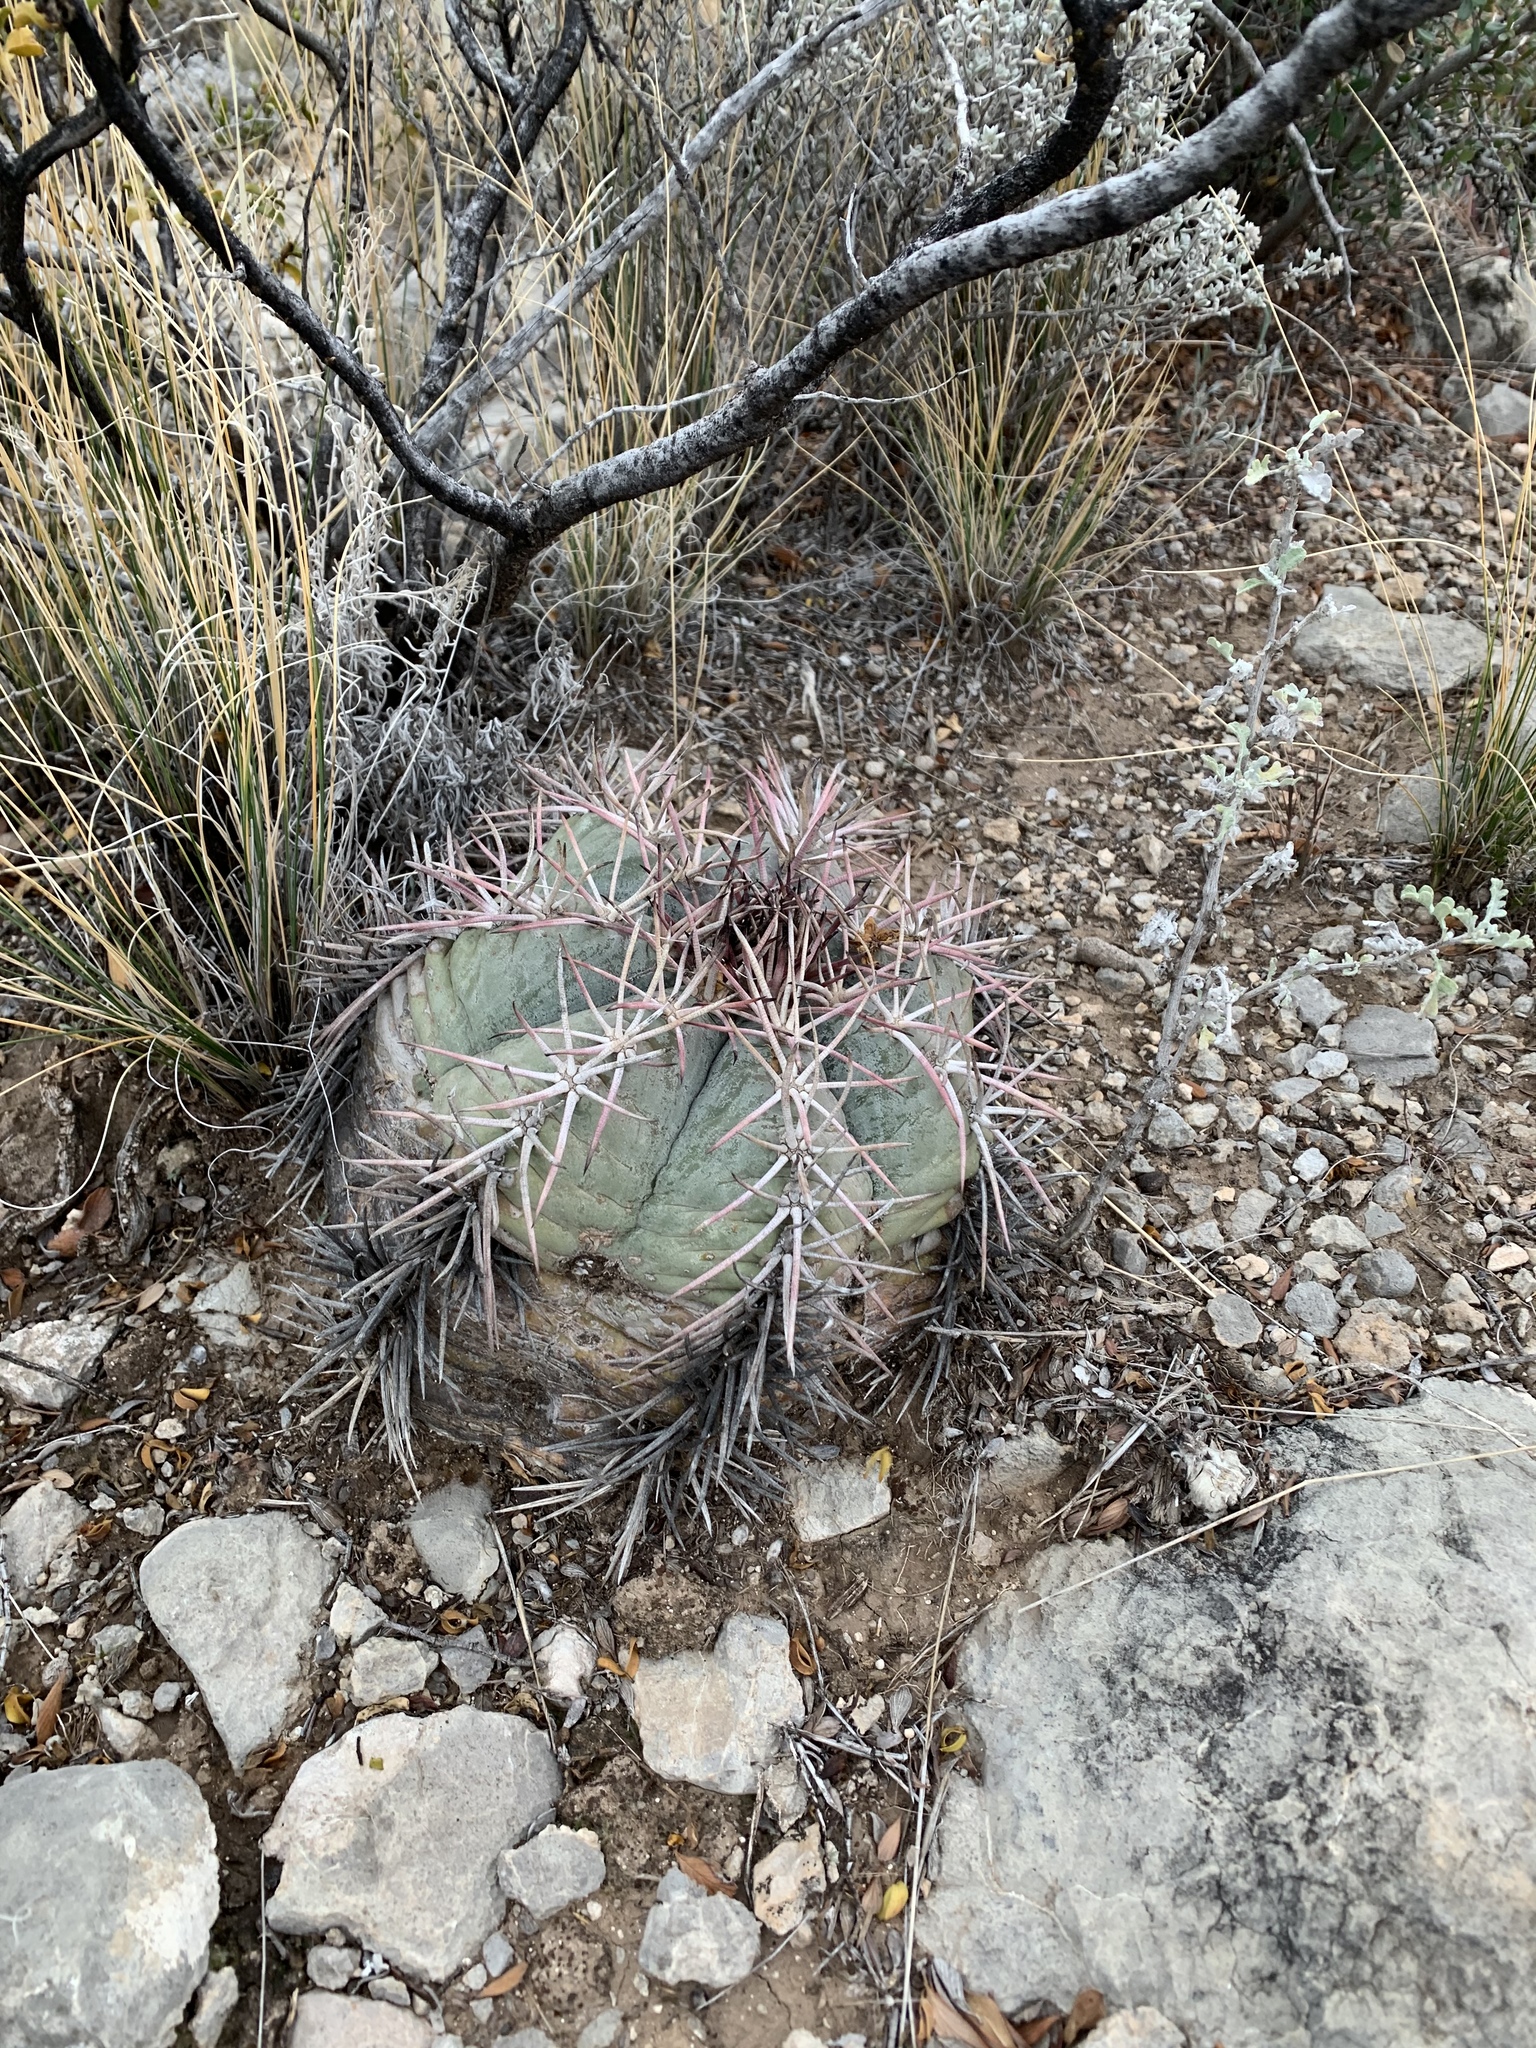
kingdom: Plantae
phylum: Tracheophyta
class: Magnoliopsida
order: Caryophyllales
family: Cactaceae
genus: Echinocactus
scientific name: Echinocactus horizonthalonius
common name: Devilshead
